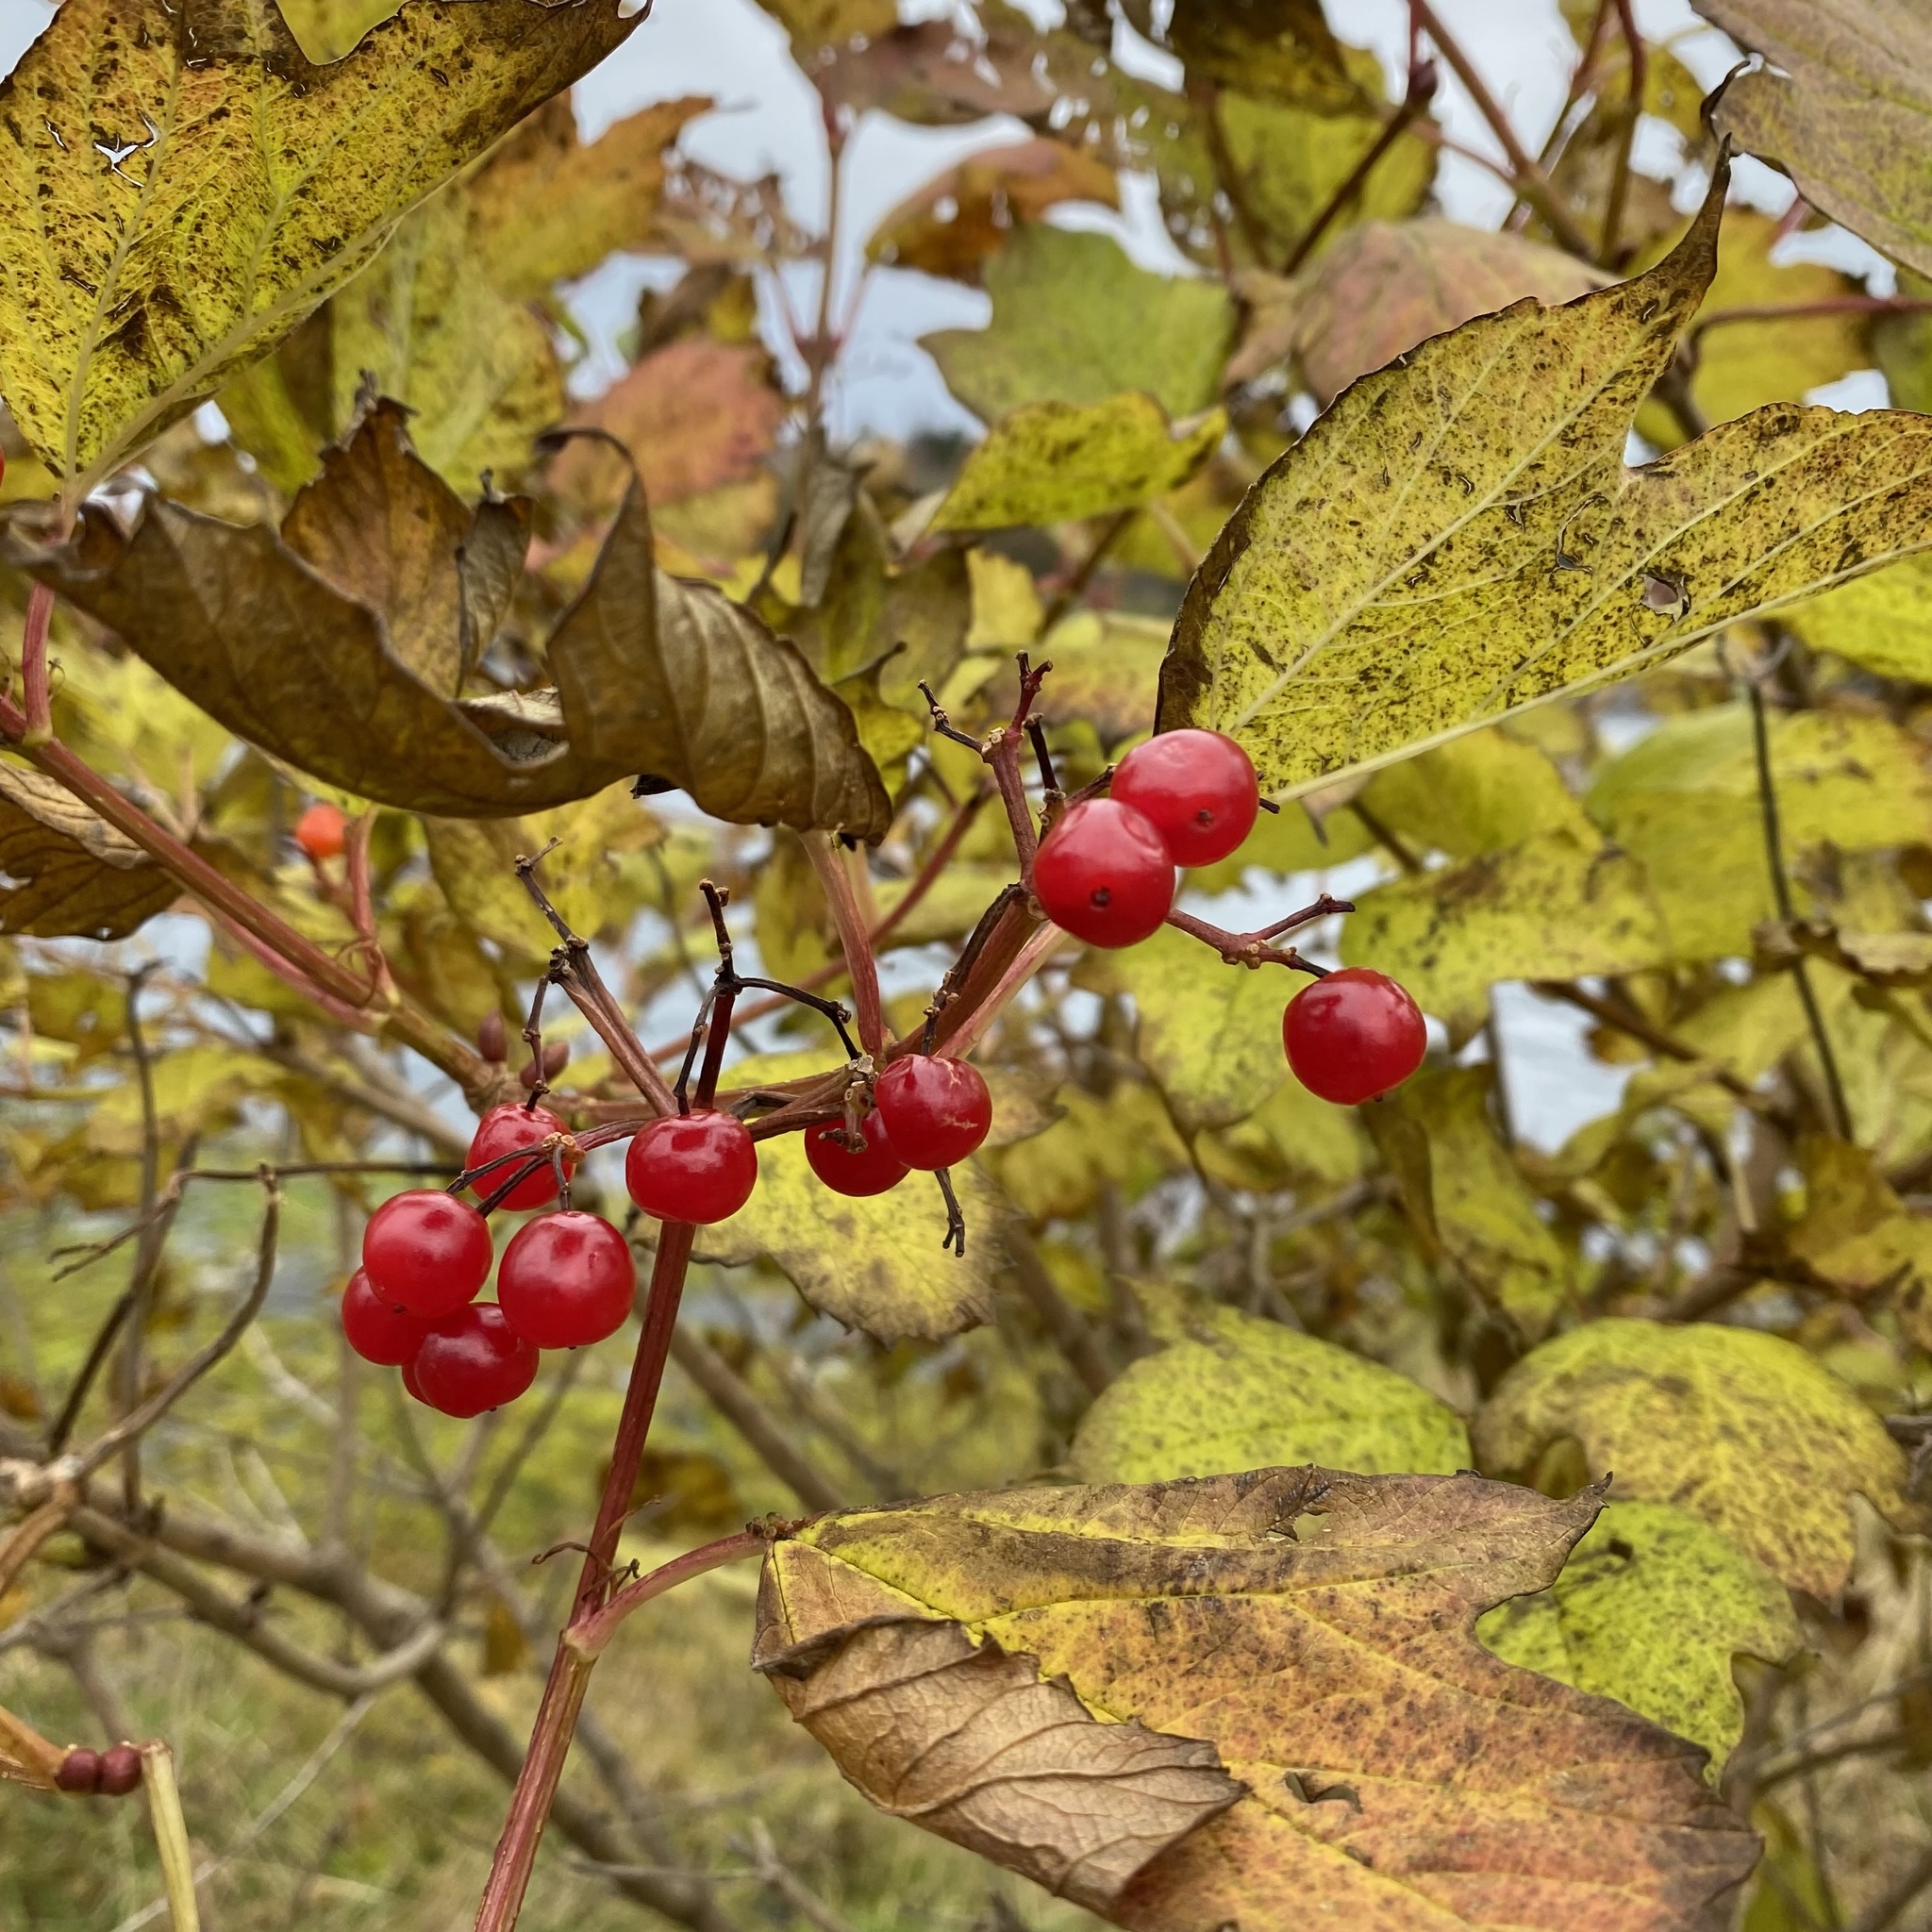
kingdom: Plantae
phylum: Tracheophyta
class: Magnoliopsida
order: Dipsacales
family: Viburnaceae
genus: Viburnum
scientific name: Viburnum opulus
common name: Guelder-rose
